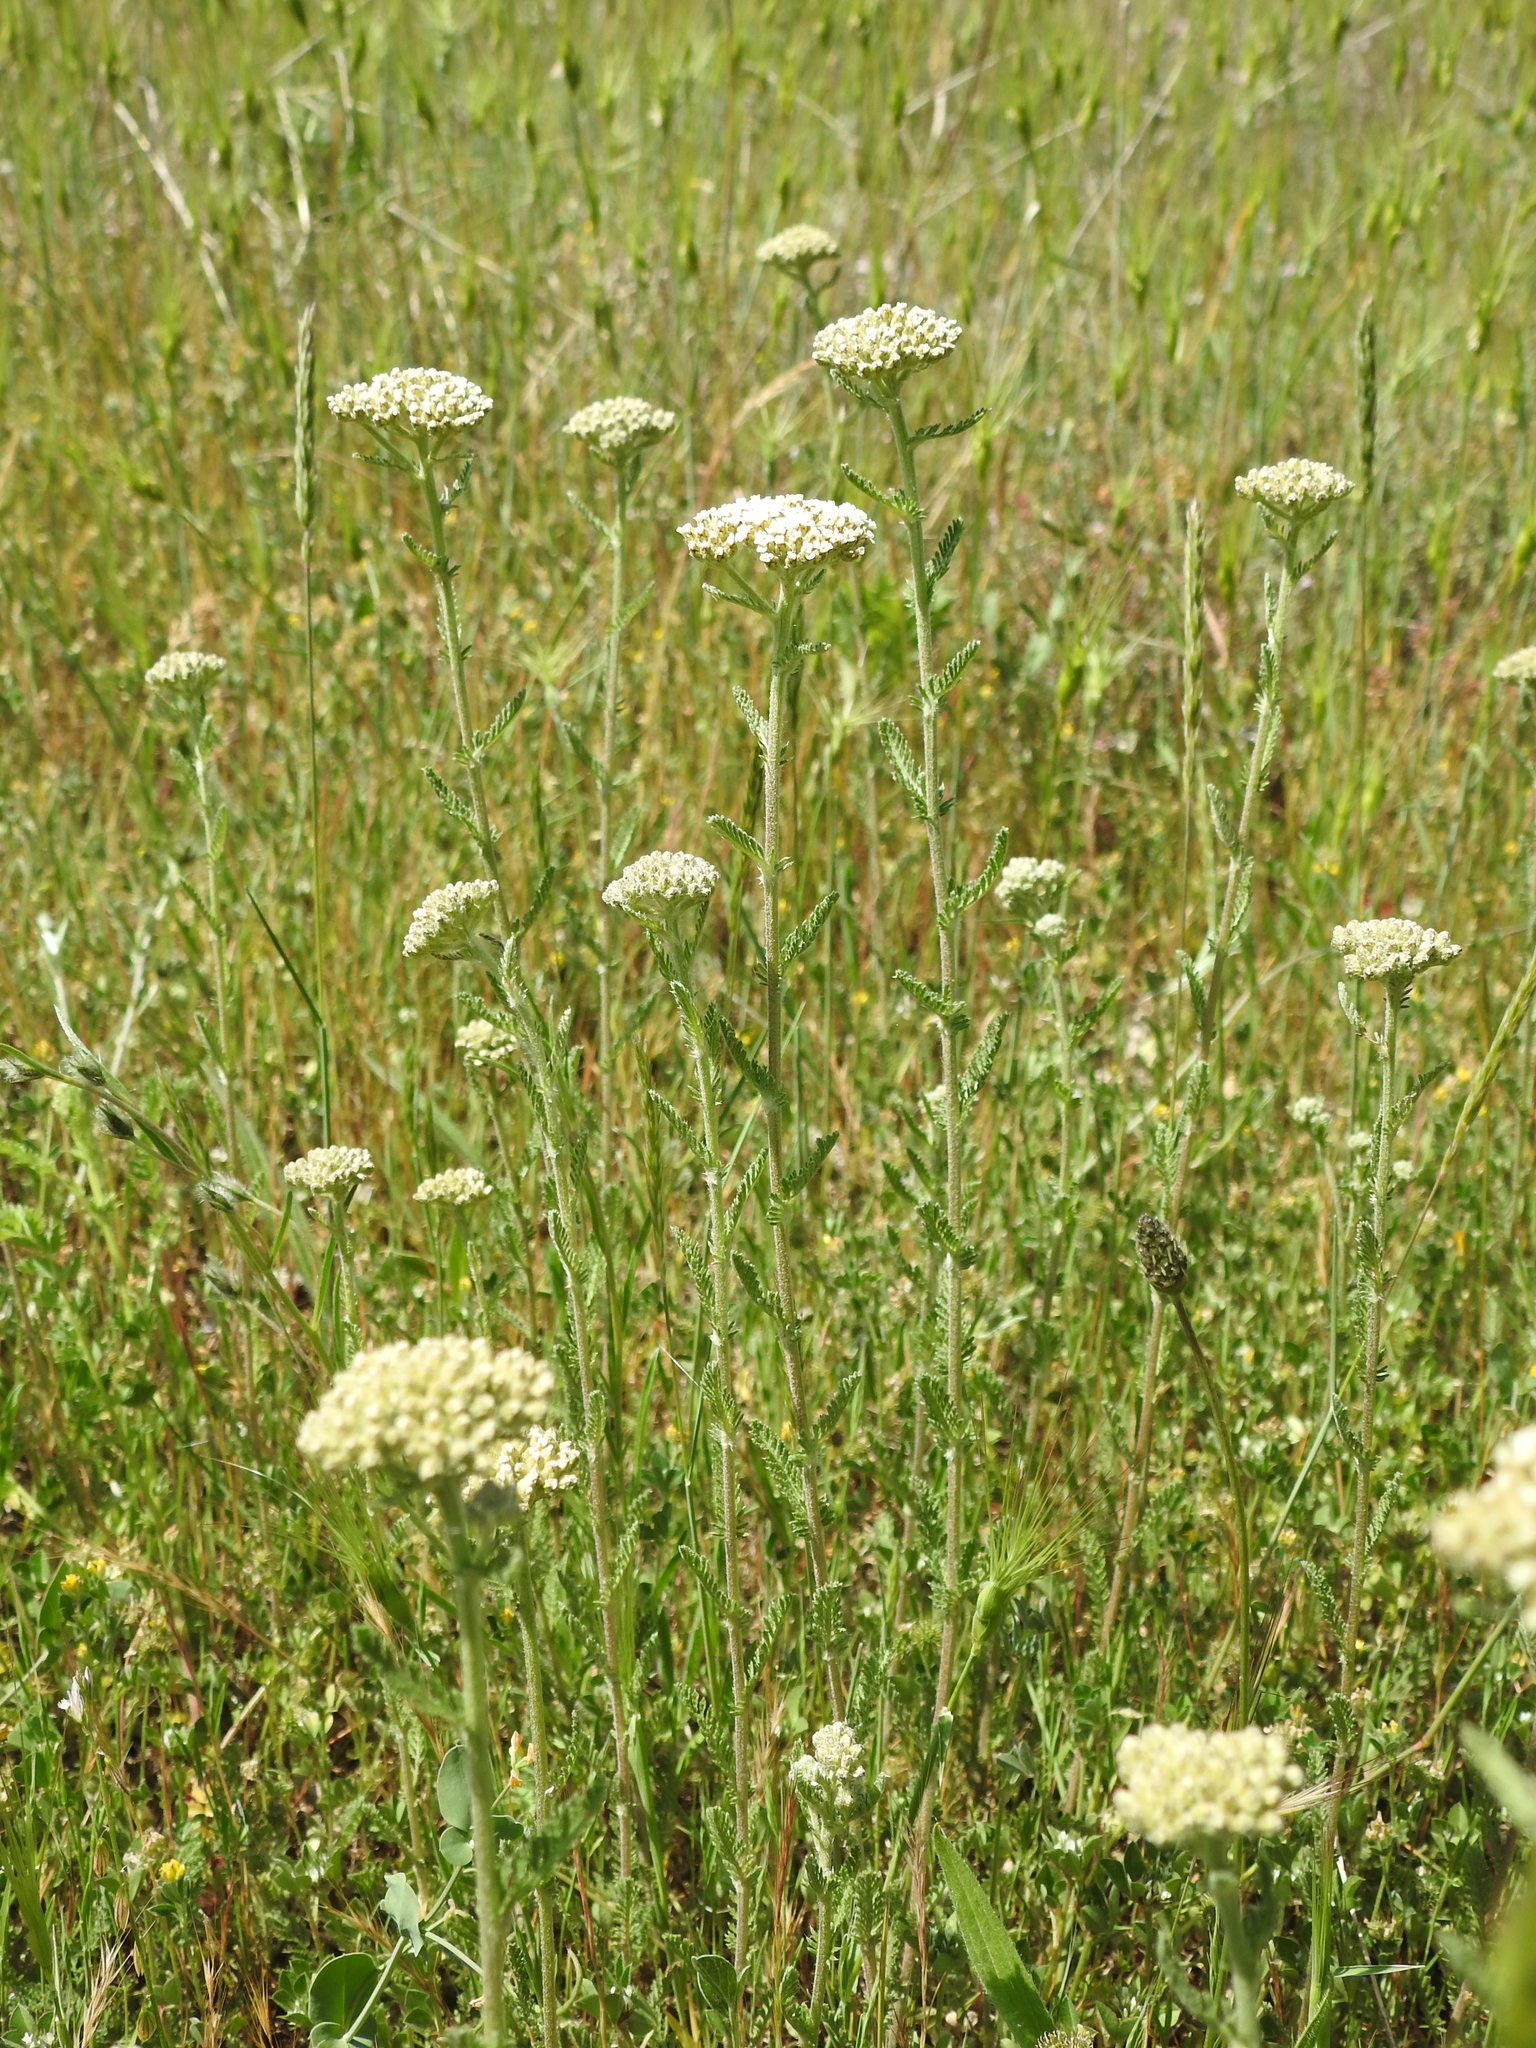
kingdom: Plantae
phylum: Tracheophyta
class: Magnoliopsida
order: Asterales
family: Asteraceae
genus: Achillea
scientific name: Achillea millefolium
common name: Yarrow
